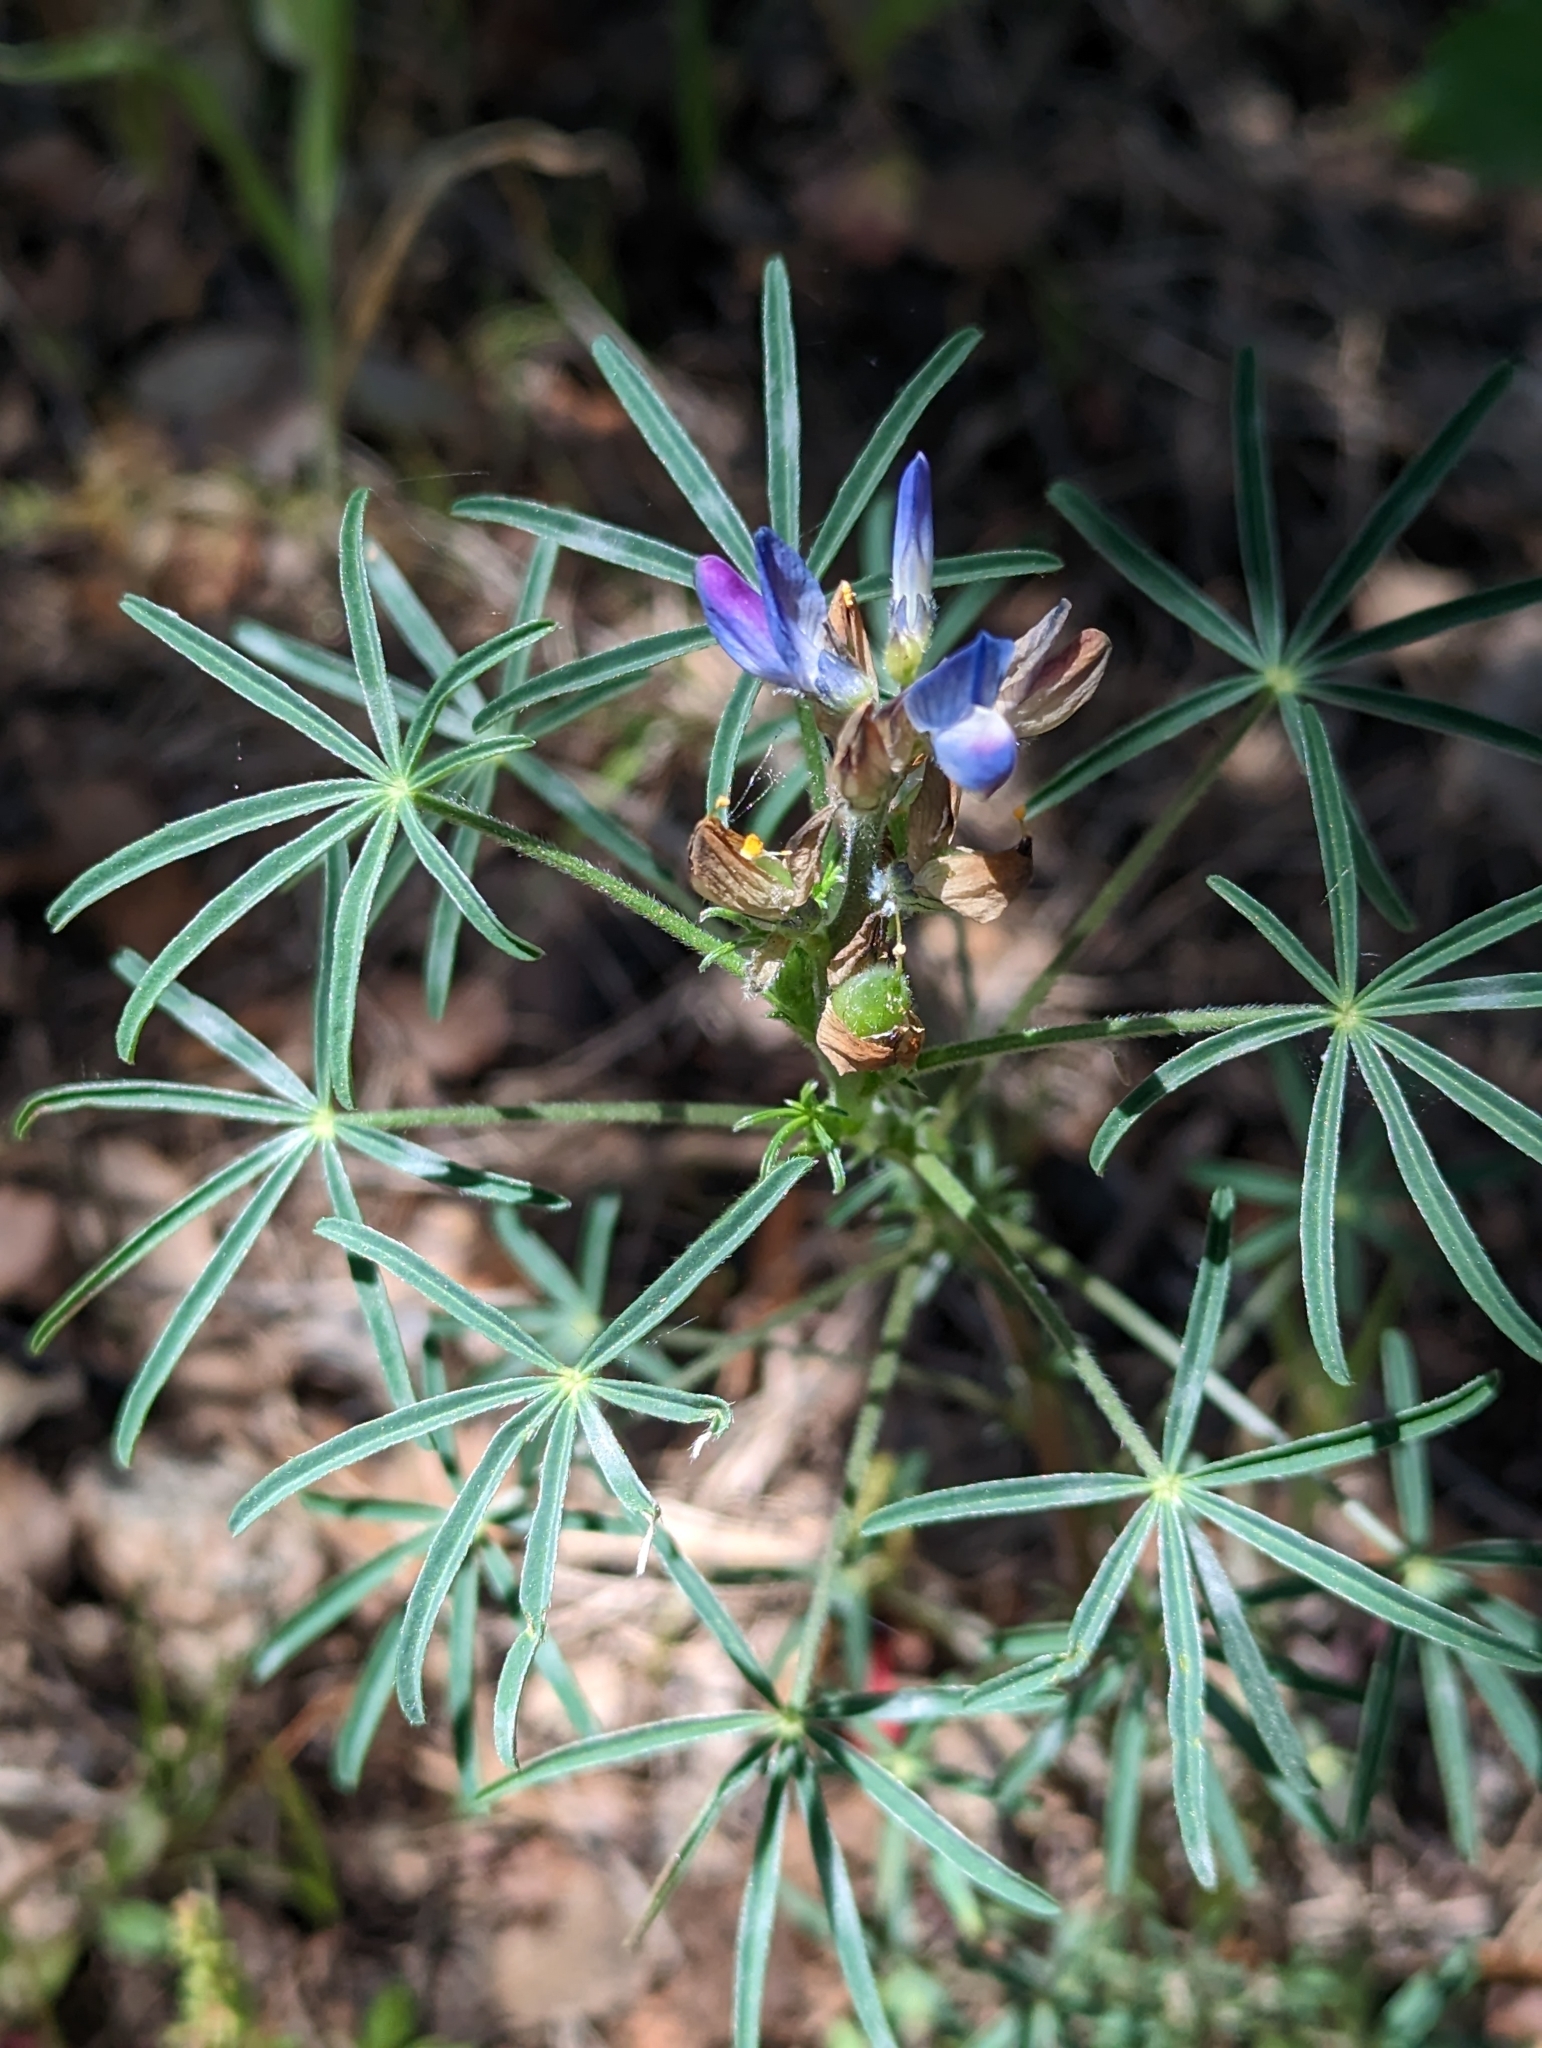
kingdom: Plantae
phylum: Tracheophyta
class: Magnoliopsida
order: Fabales
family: Fabaceae
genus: Lupinus
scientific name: Lupinus angustifolius
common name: Narrow-leaved lupin
